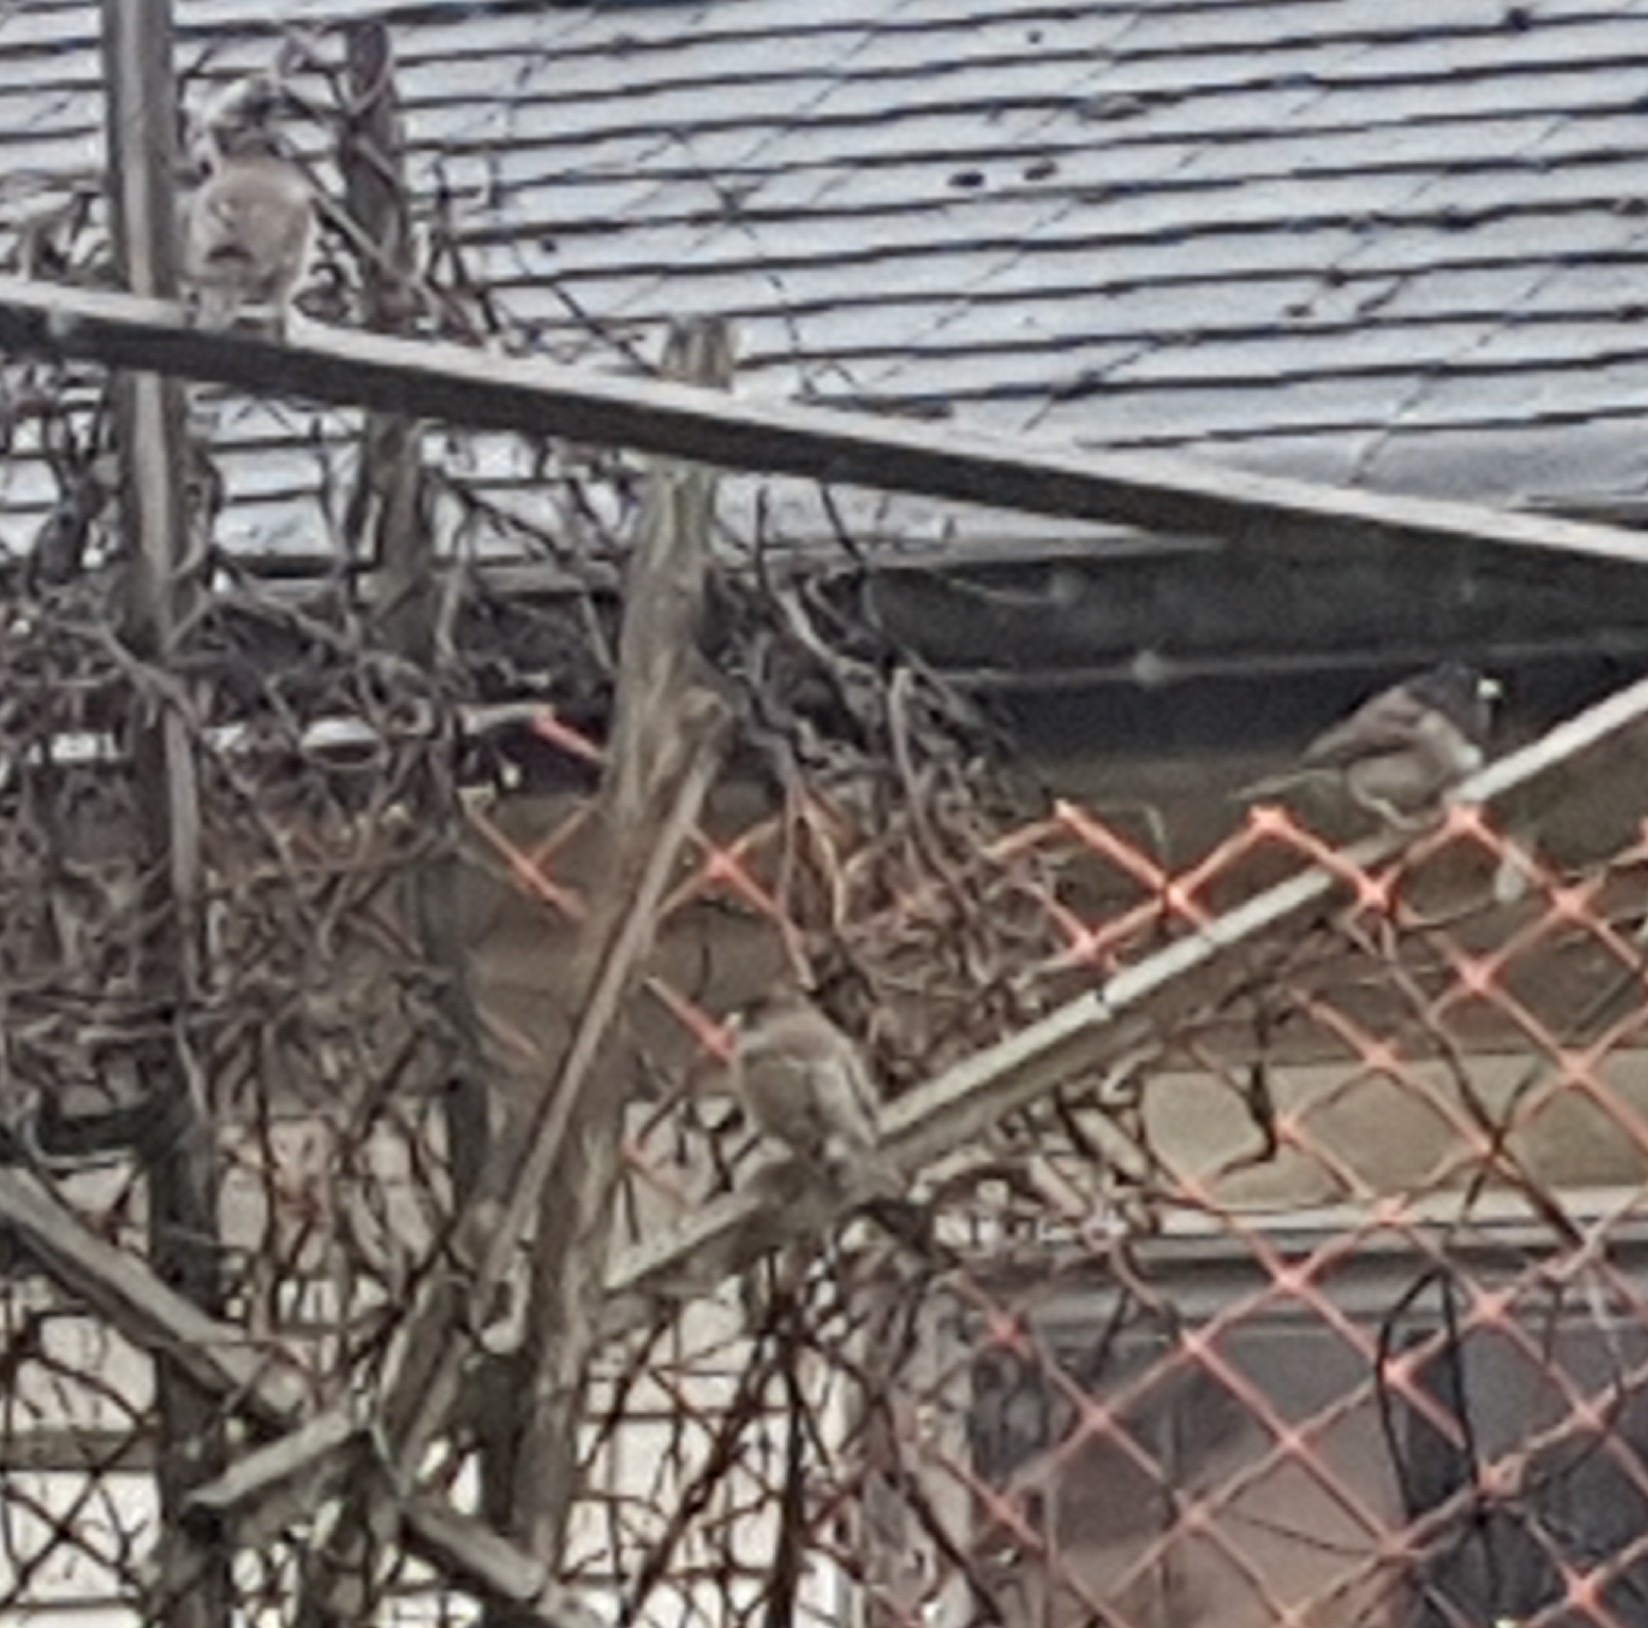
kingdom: Animalia
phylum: Chordata
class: Aves
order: Passeriformes
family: Passerellidae
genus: Junco
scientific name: Junco hyemalis
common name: Dark-eyed junco
